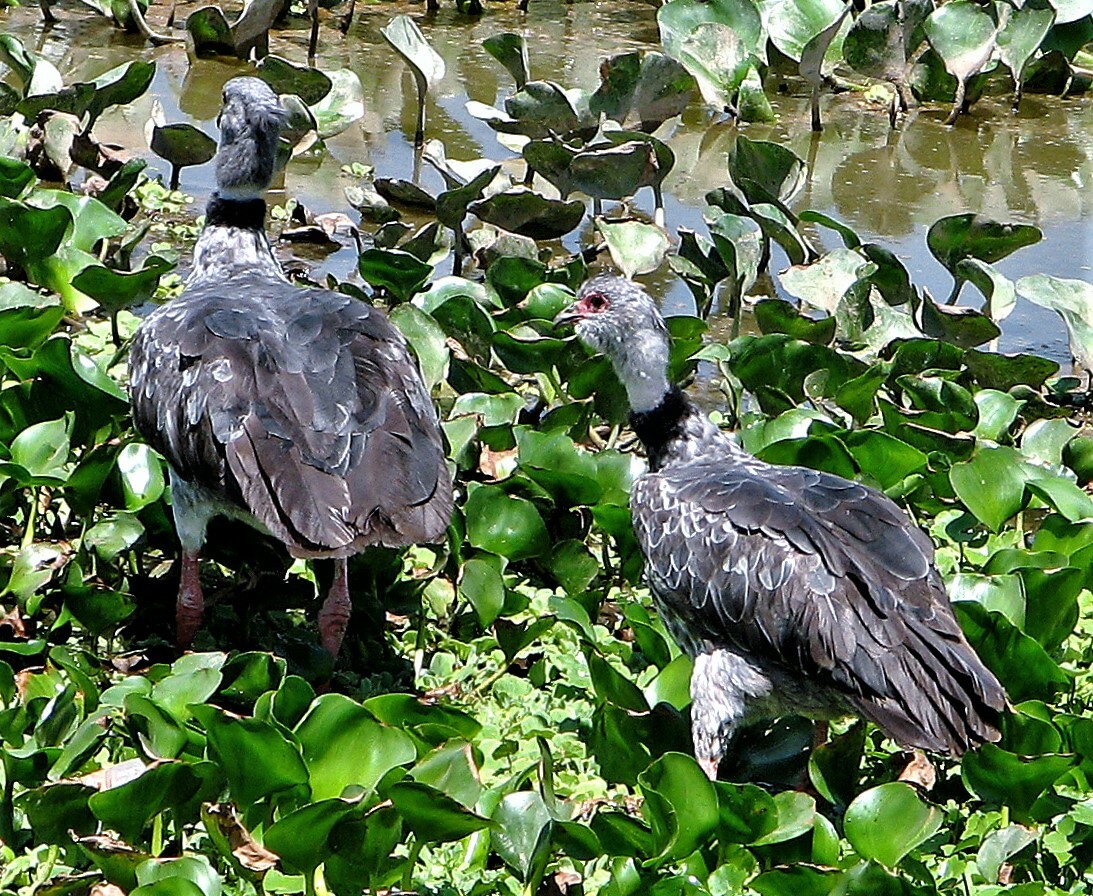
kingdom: Animalia
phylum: Chordata
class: Aves
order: Anseriformes
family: Anhimidae
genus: Chauna
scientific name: Chauna torquata
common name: Southern screamer
